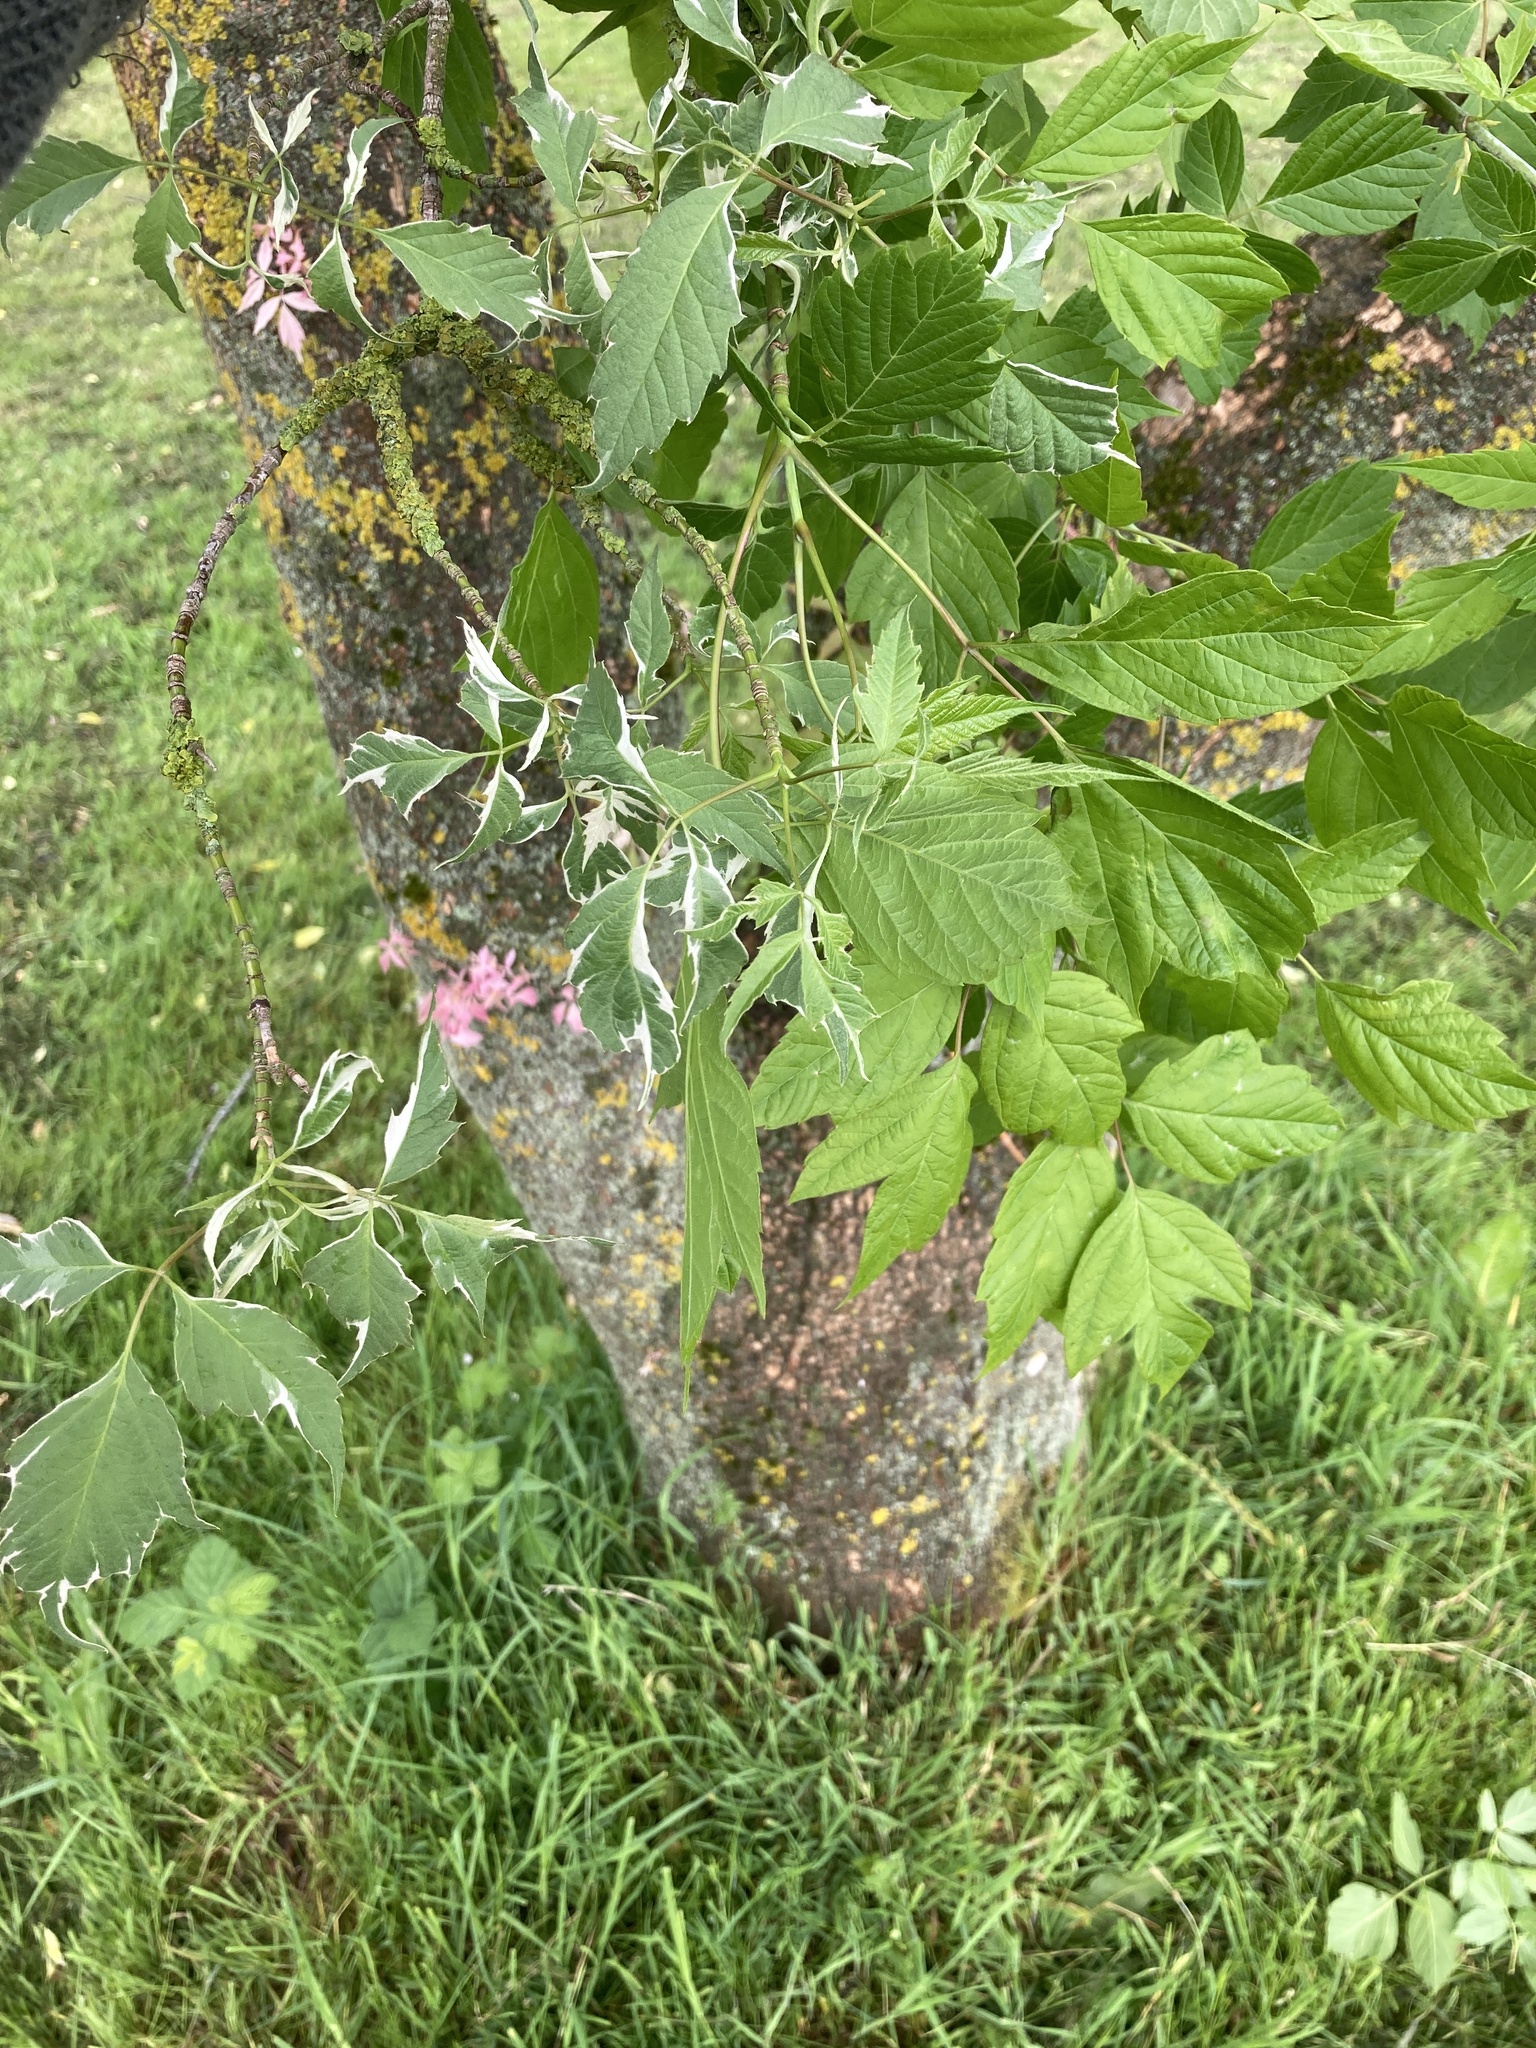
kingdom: Plantae
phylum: Tracheophyta
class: Magnoliopsida
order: Sapindales
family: Sapindaceae
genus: Acer
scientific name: Acer negundo
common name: Ashleaf maple
